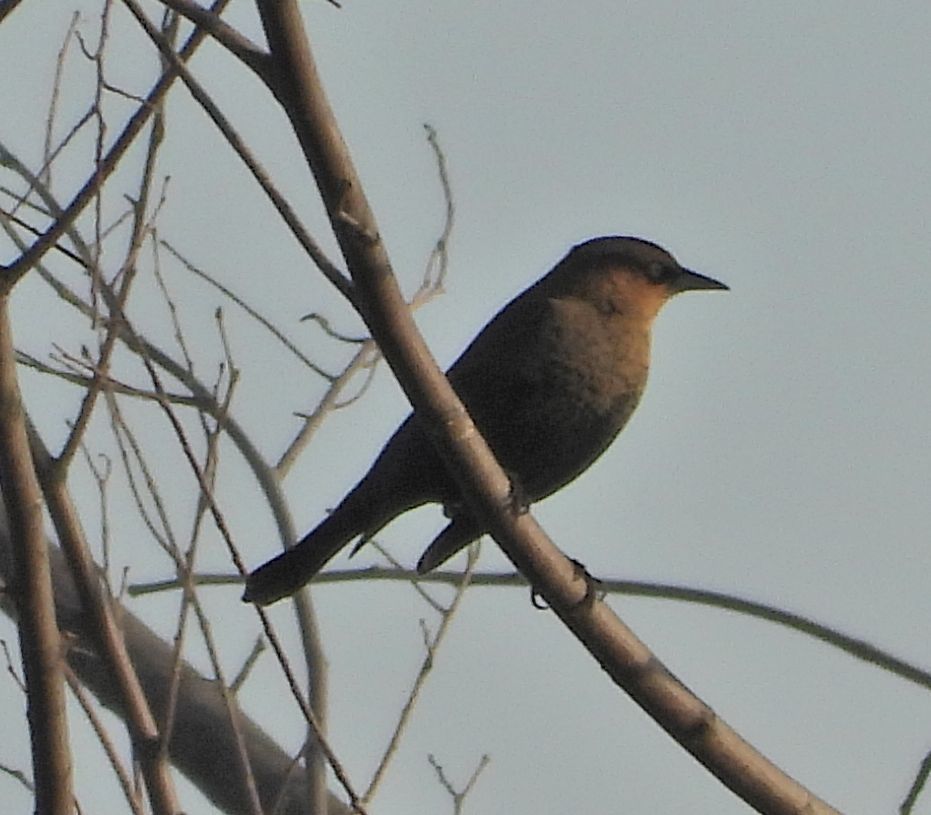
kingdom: Animalia
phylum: Chordata
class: Aves
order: Passeriformes
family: Icteridae
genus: Euphagus
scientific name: Euphagus carolinus
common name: Rusty blackbird
